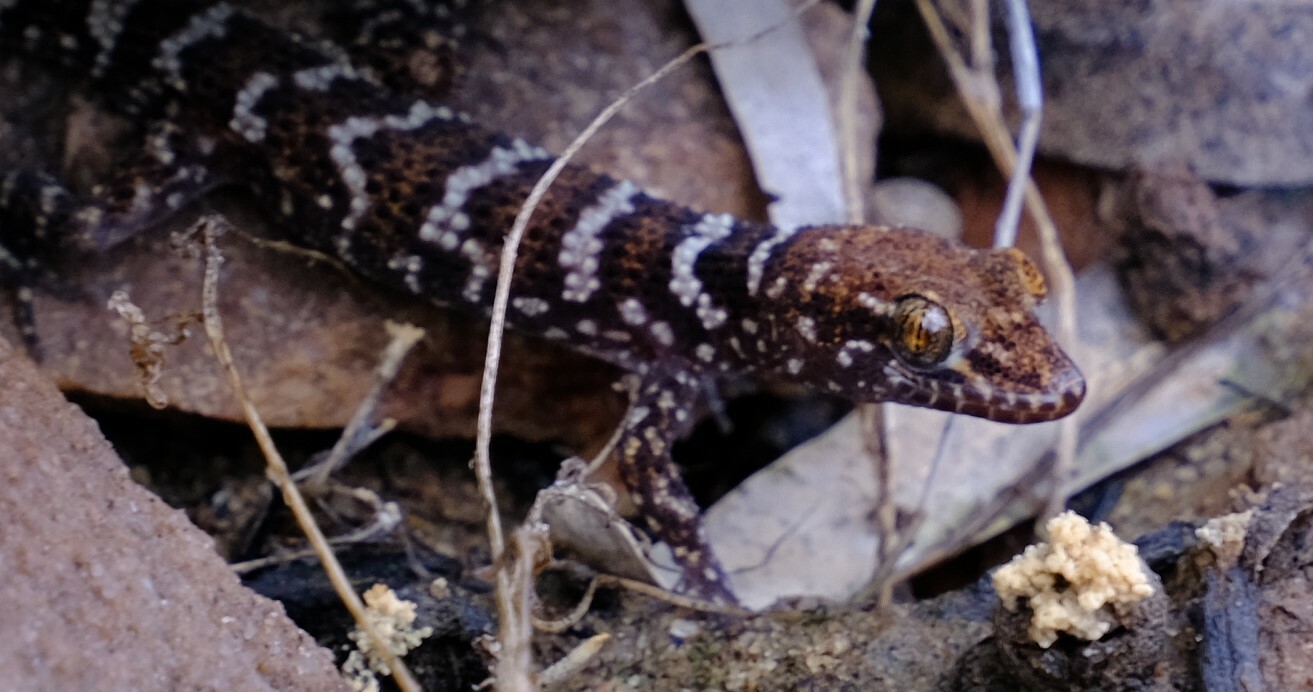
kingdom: Animalia
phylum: Chordata
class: Squamata
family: Gekkonidae
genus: Heteronotia
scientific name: Heteronotia binoei
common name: Bynoe's gecko
